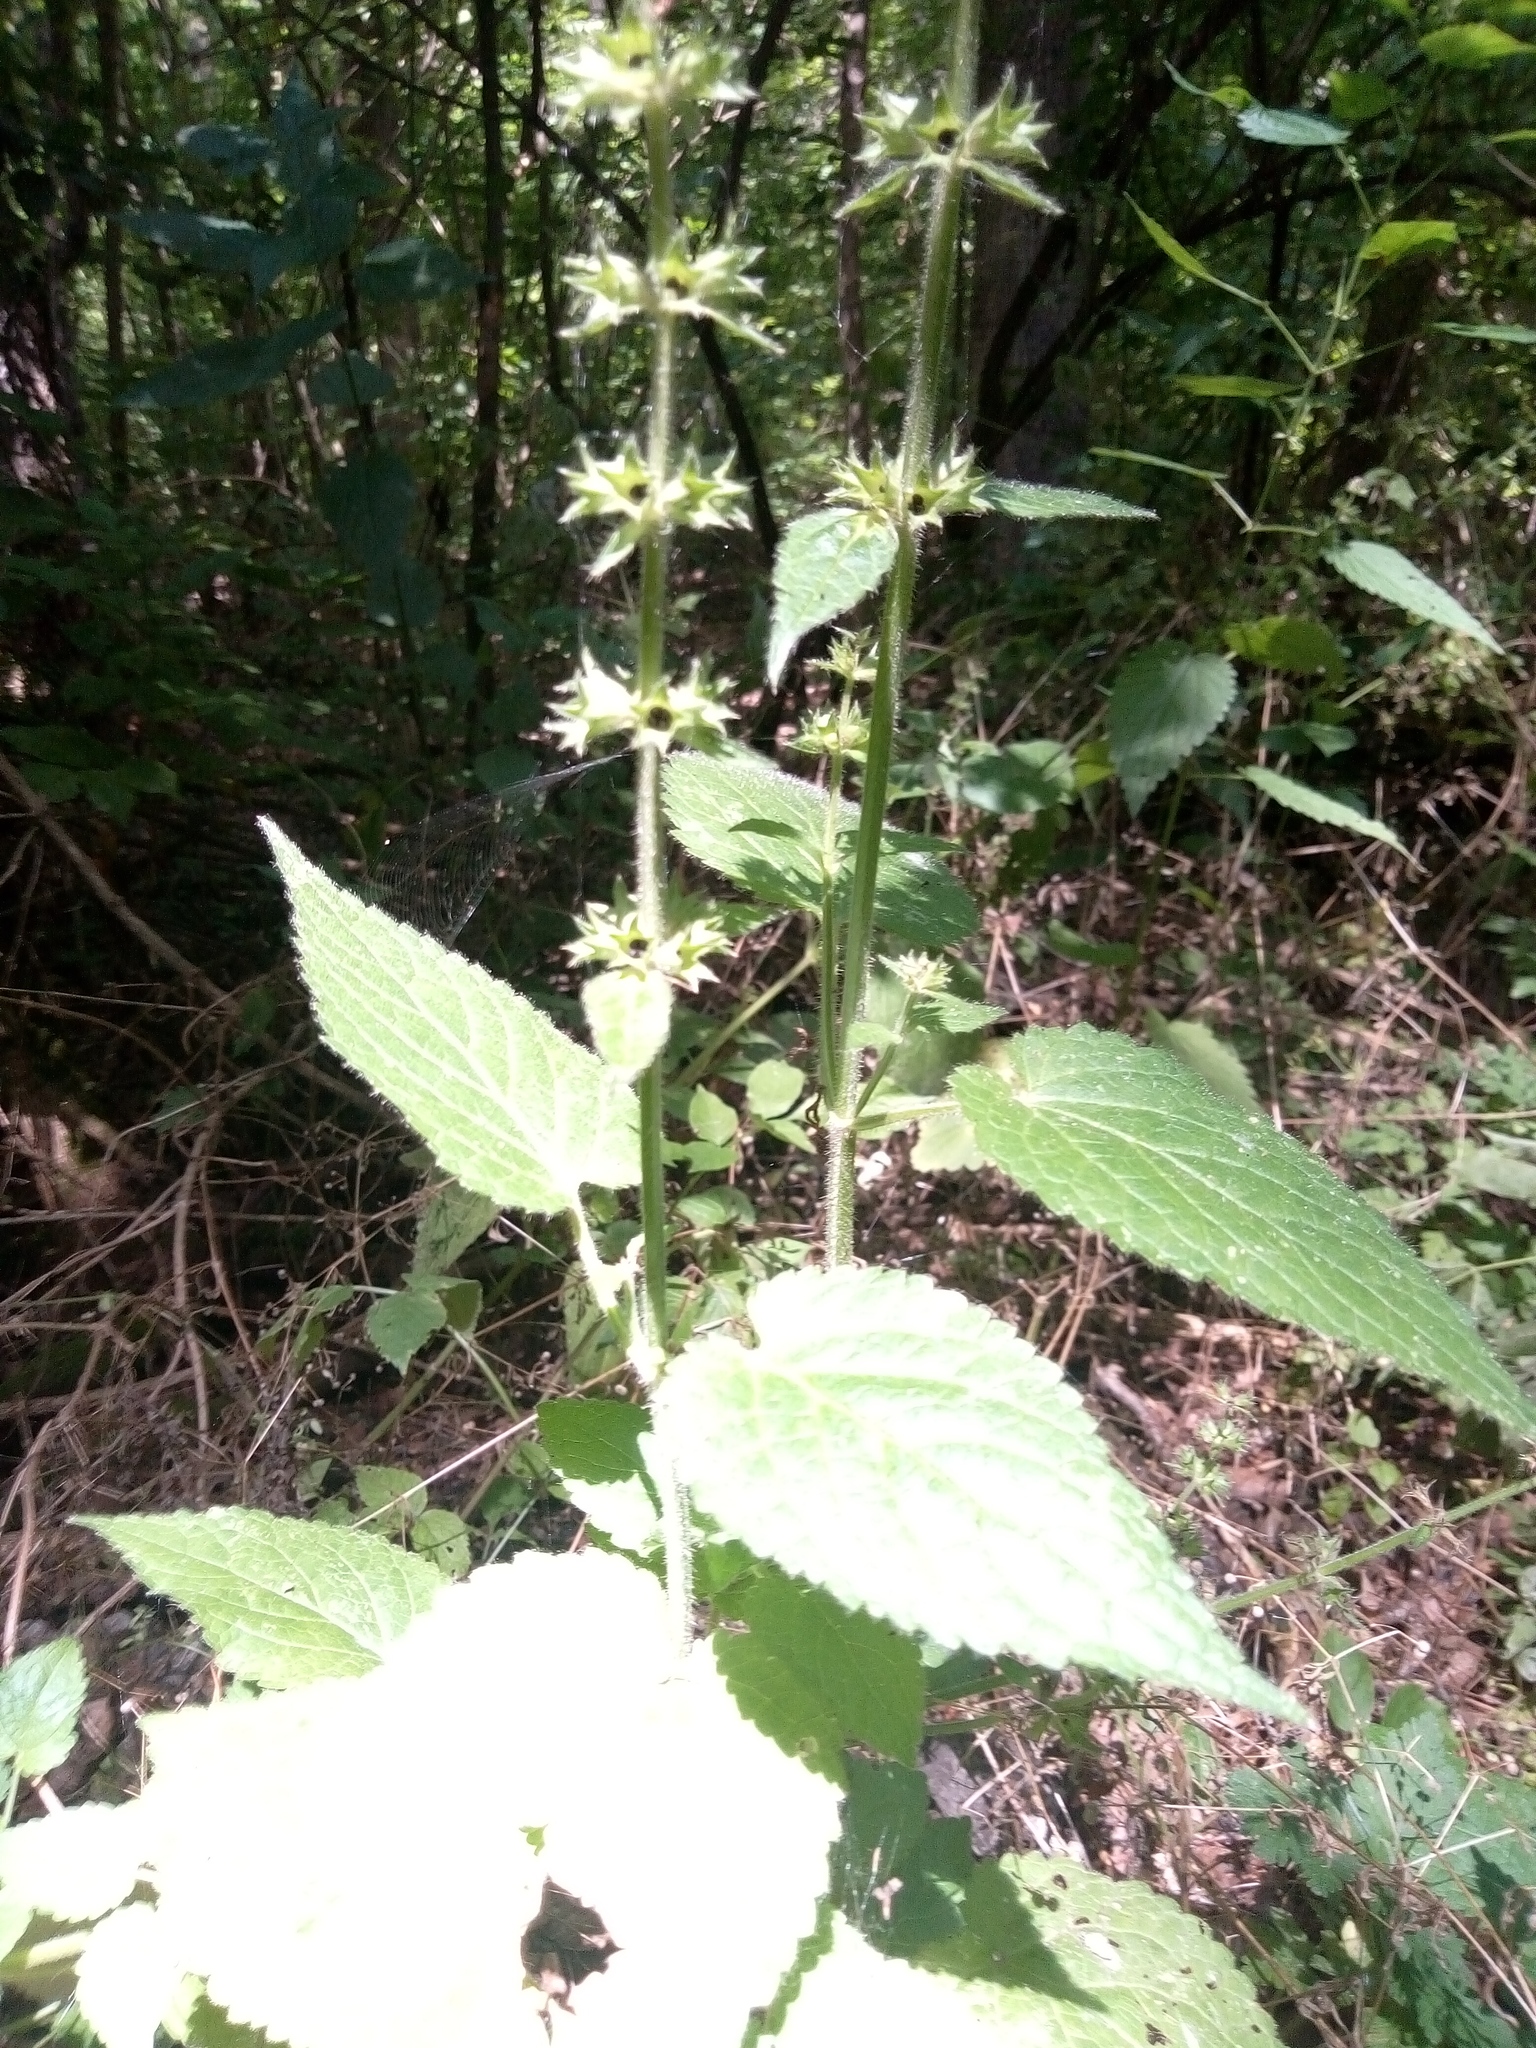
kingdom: Plantae
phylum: Tracheophyta
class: Magnoliopsida
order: Lamiales
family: Lamiaceae
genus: Stachys
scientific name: Stachys sylvatica
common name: Hedge woundwort
